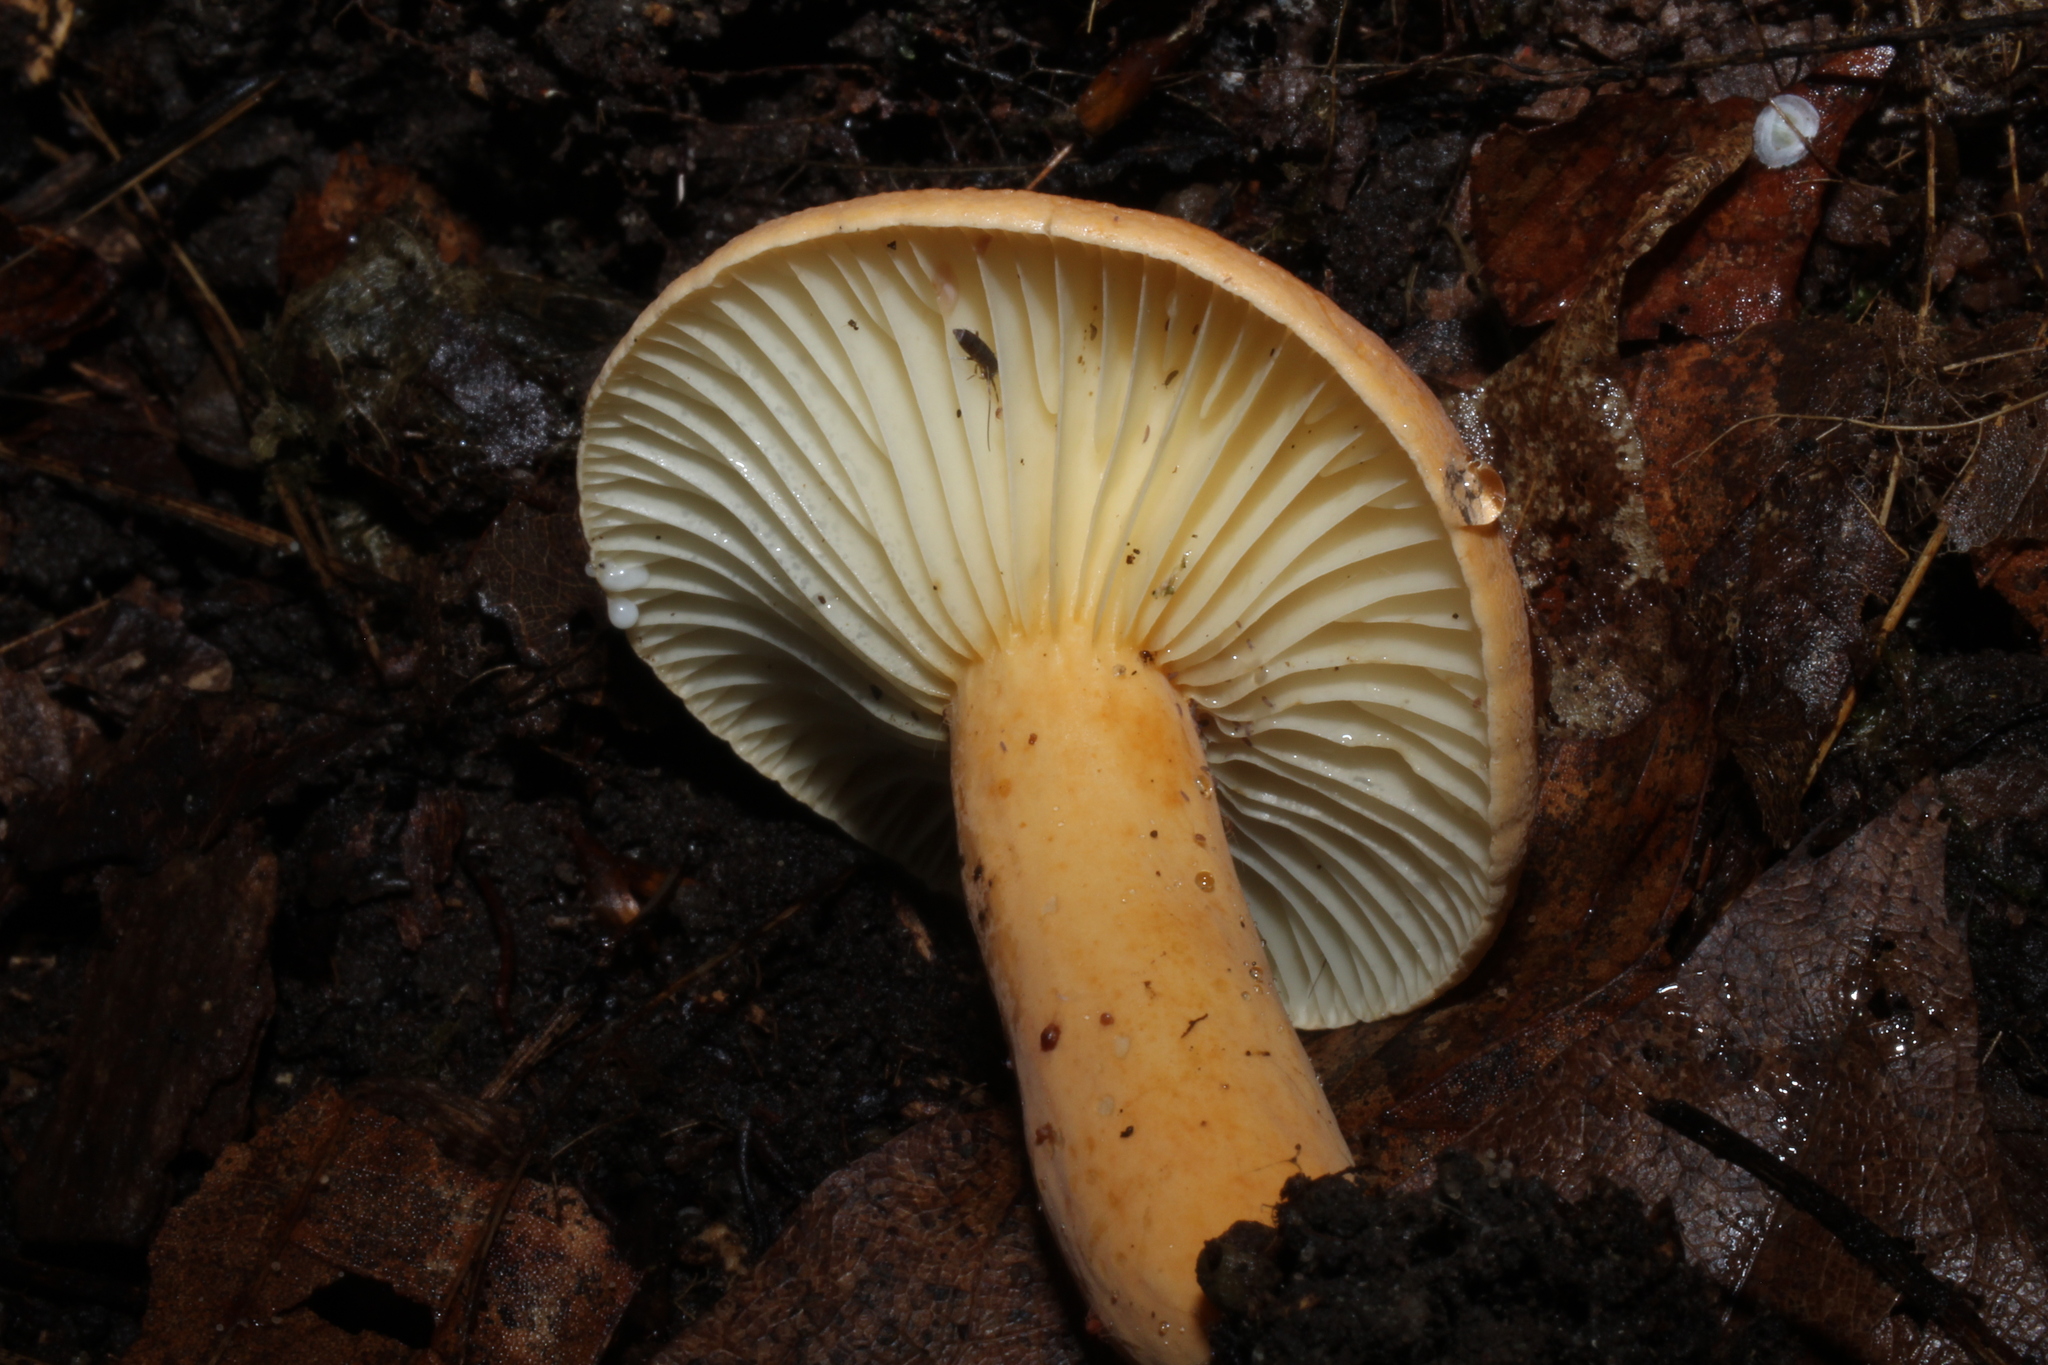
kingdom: Fungi
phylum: Basidiomycota
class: Agaricomycetes
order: Russulales
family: Russulaceae
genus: Lactarius
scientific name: Lactarius hygrophoroides
